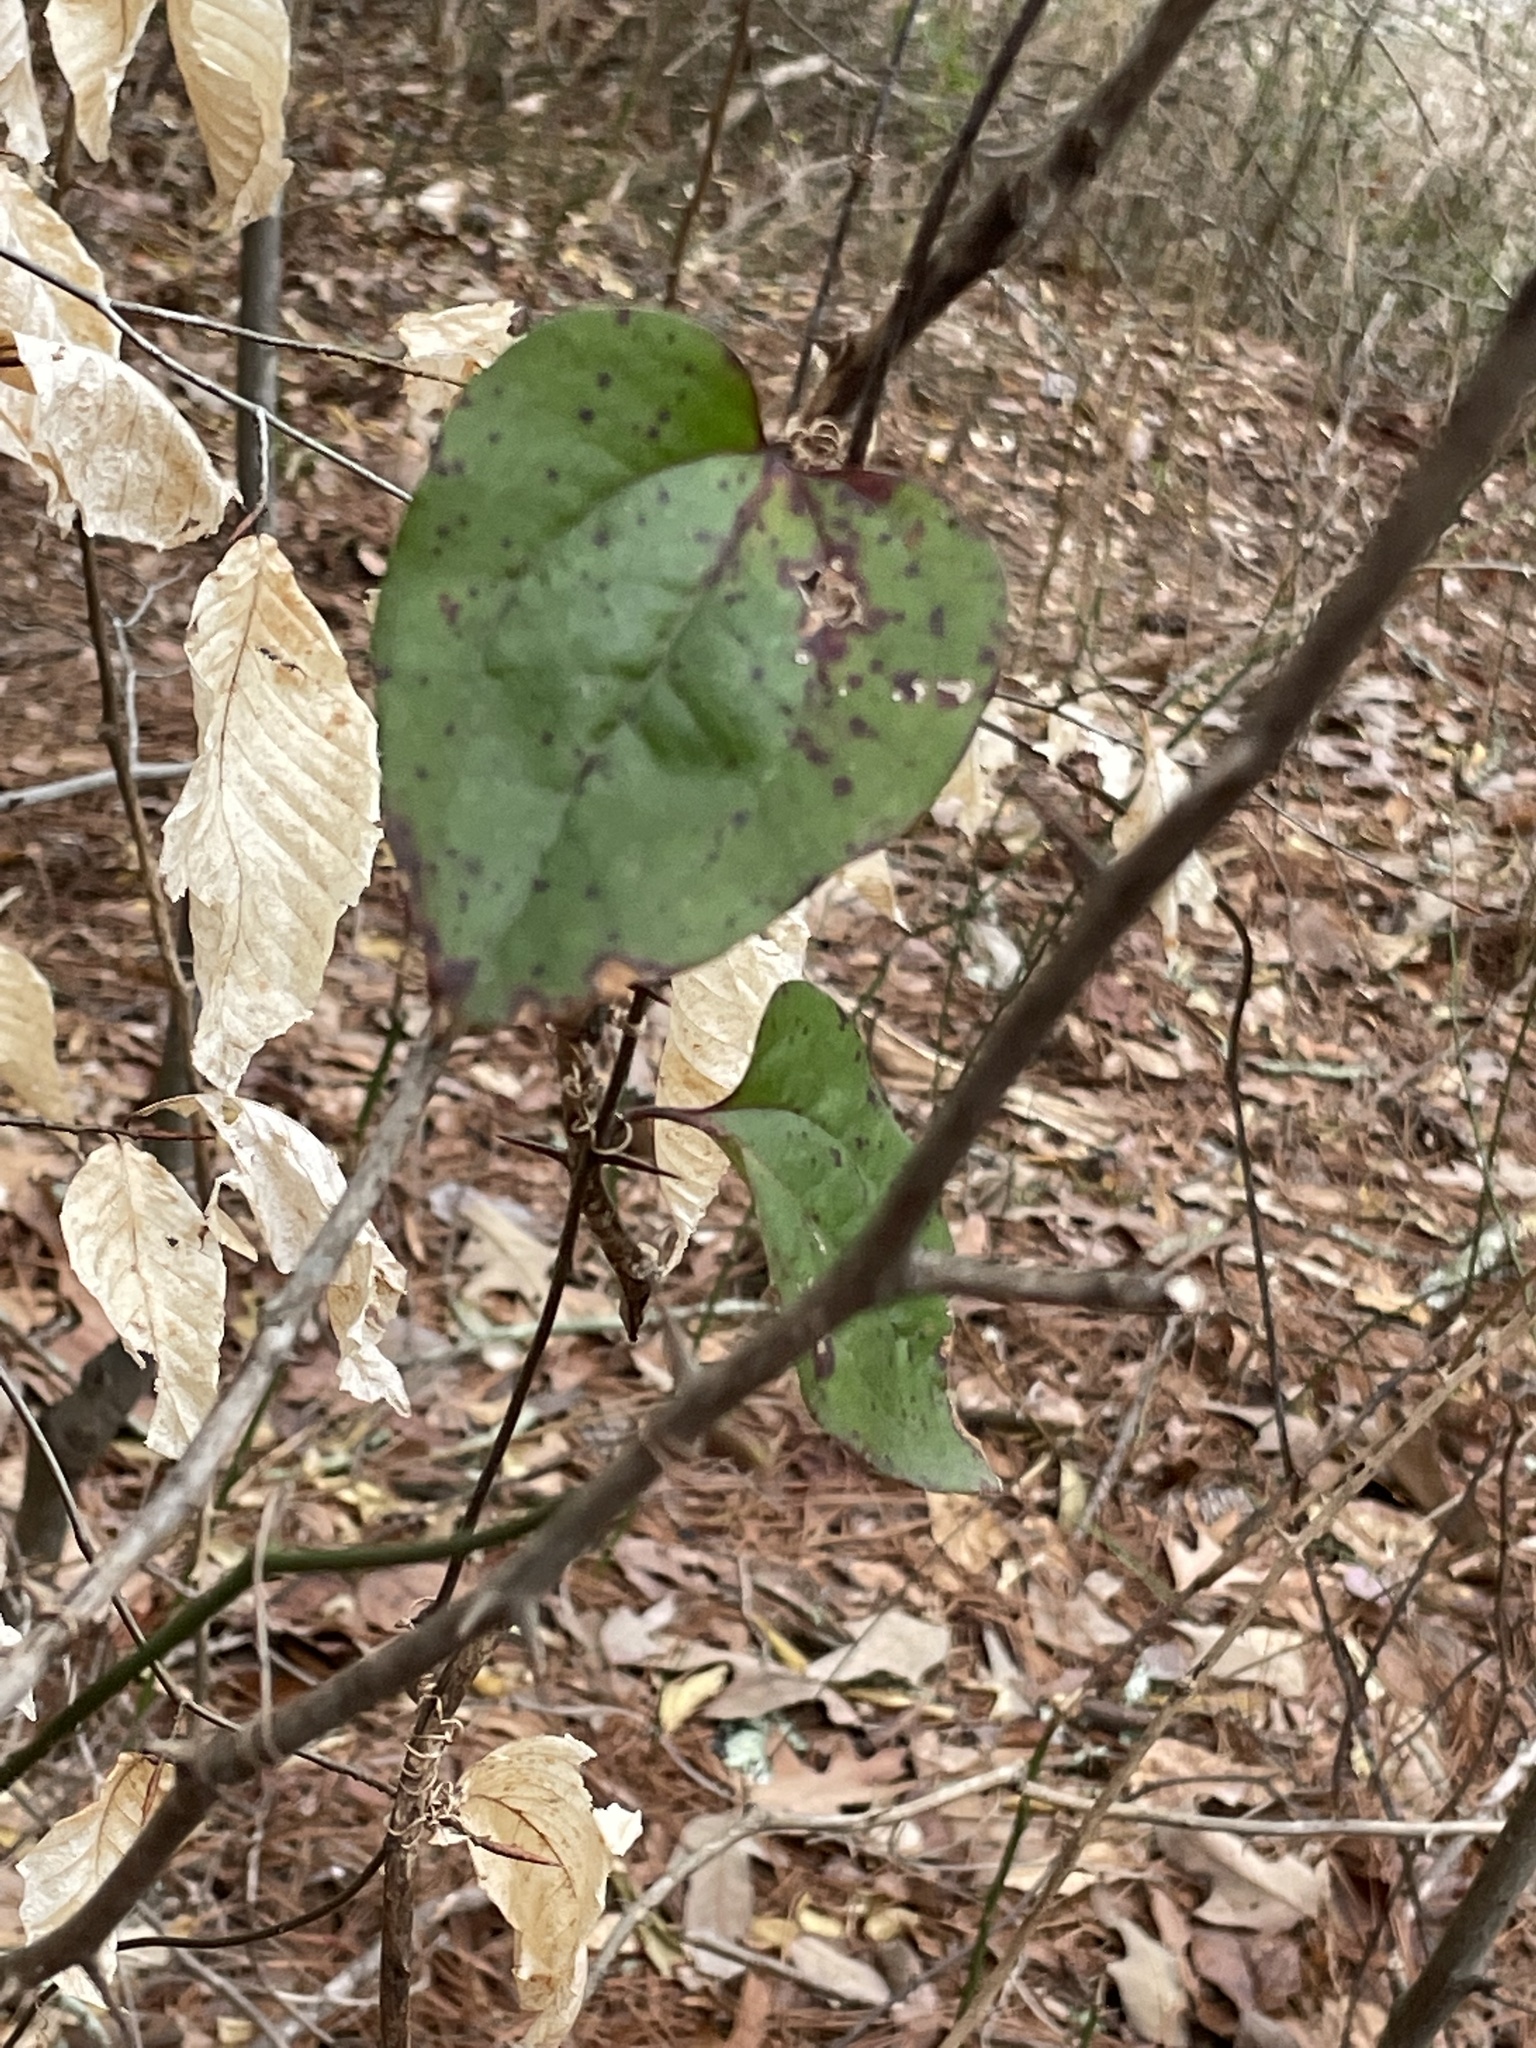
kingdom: Plantae
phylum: Tracheophyta
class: Liliopsida
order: Liliales
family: Smilacaceae
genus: Smilax
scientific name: Smilax glauca
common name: Cat greenbrier
